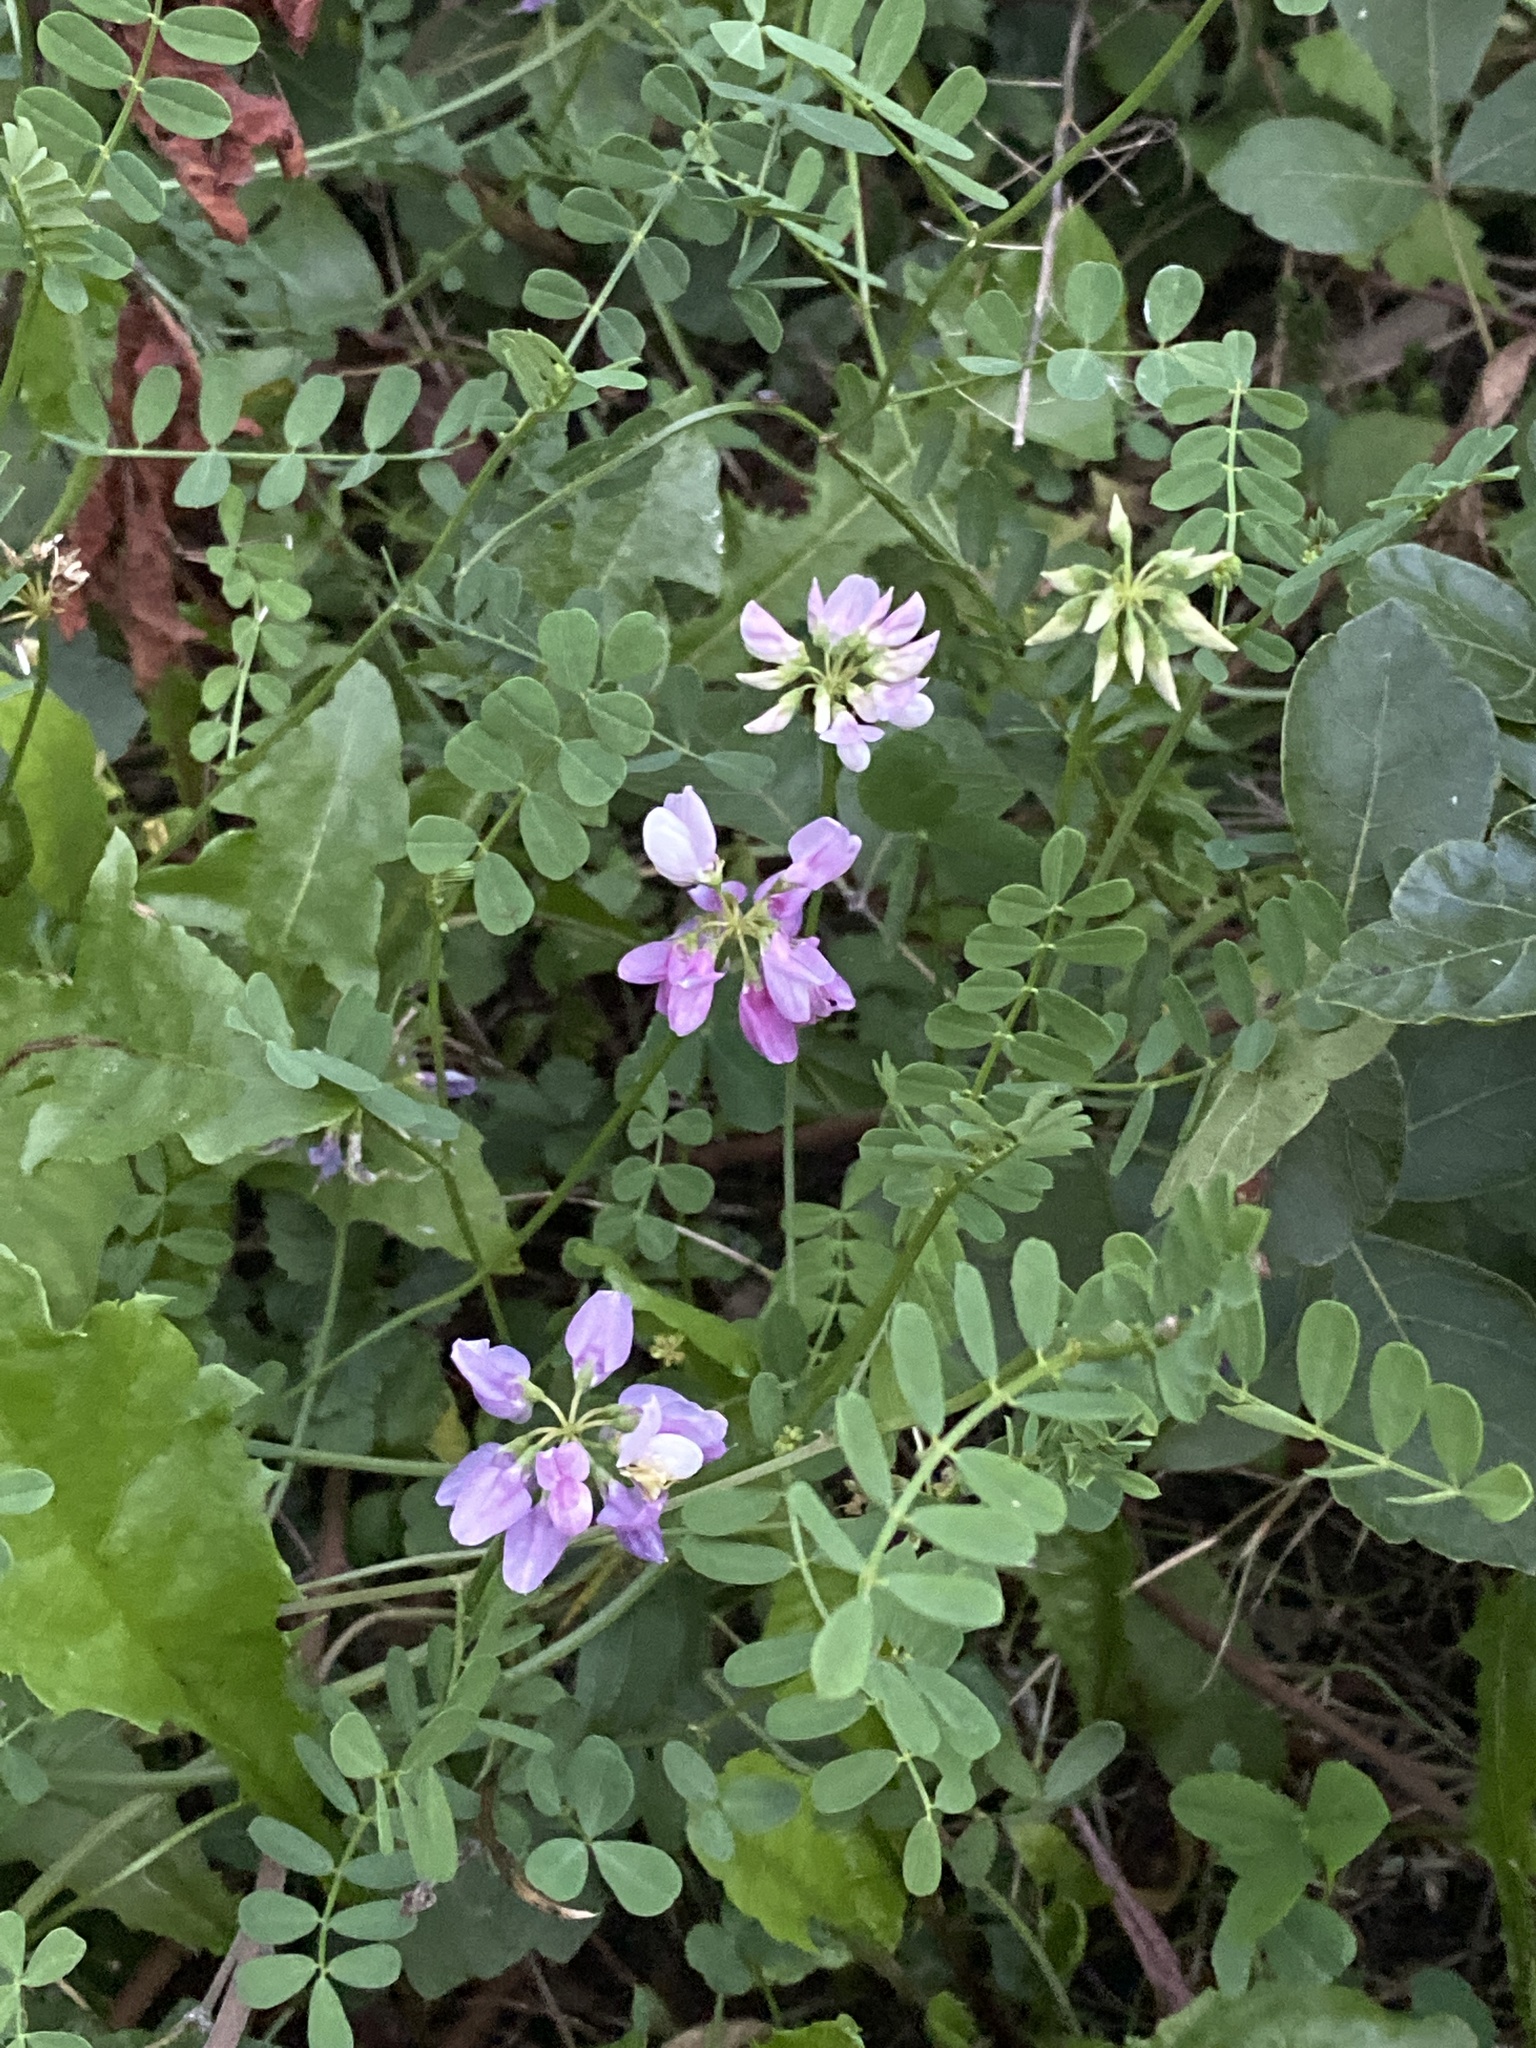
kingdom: Plantae
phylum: Tracheophyta
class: Magnoliopsida
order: Fabales
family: Fabaceae
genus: Coronilla
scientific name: Coronilla varia
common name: Crownvetch
